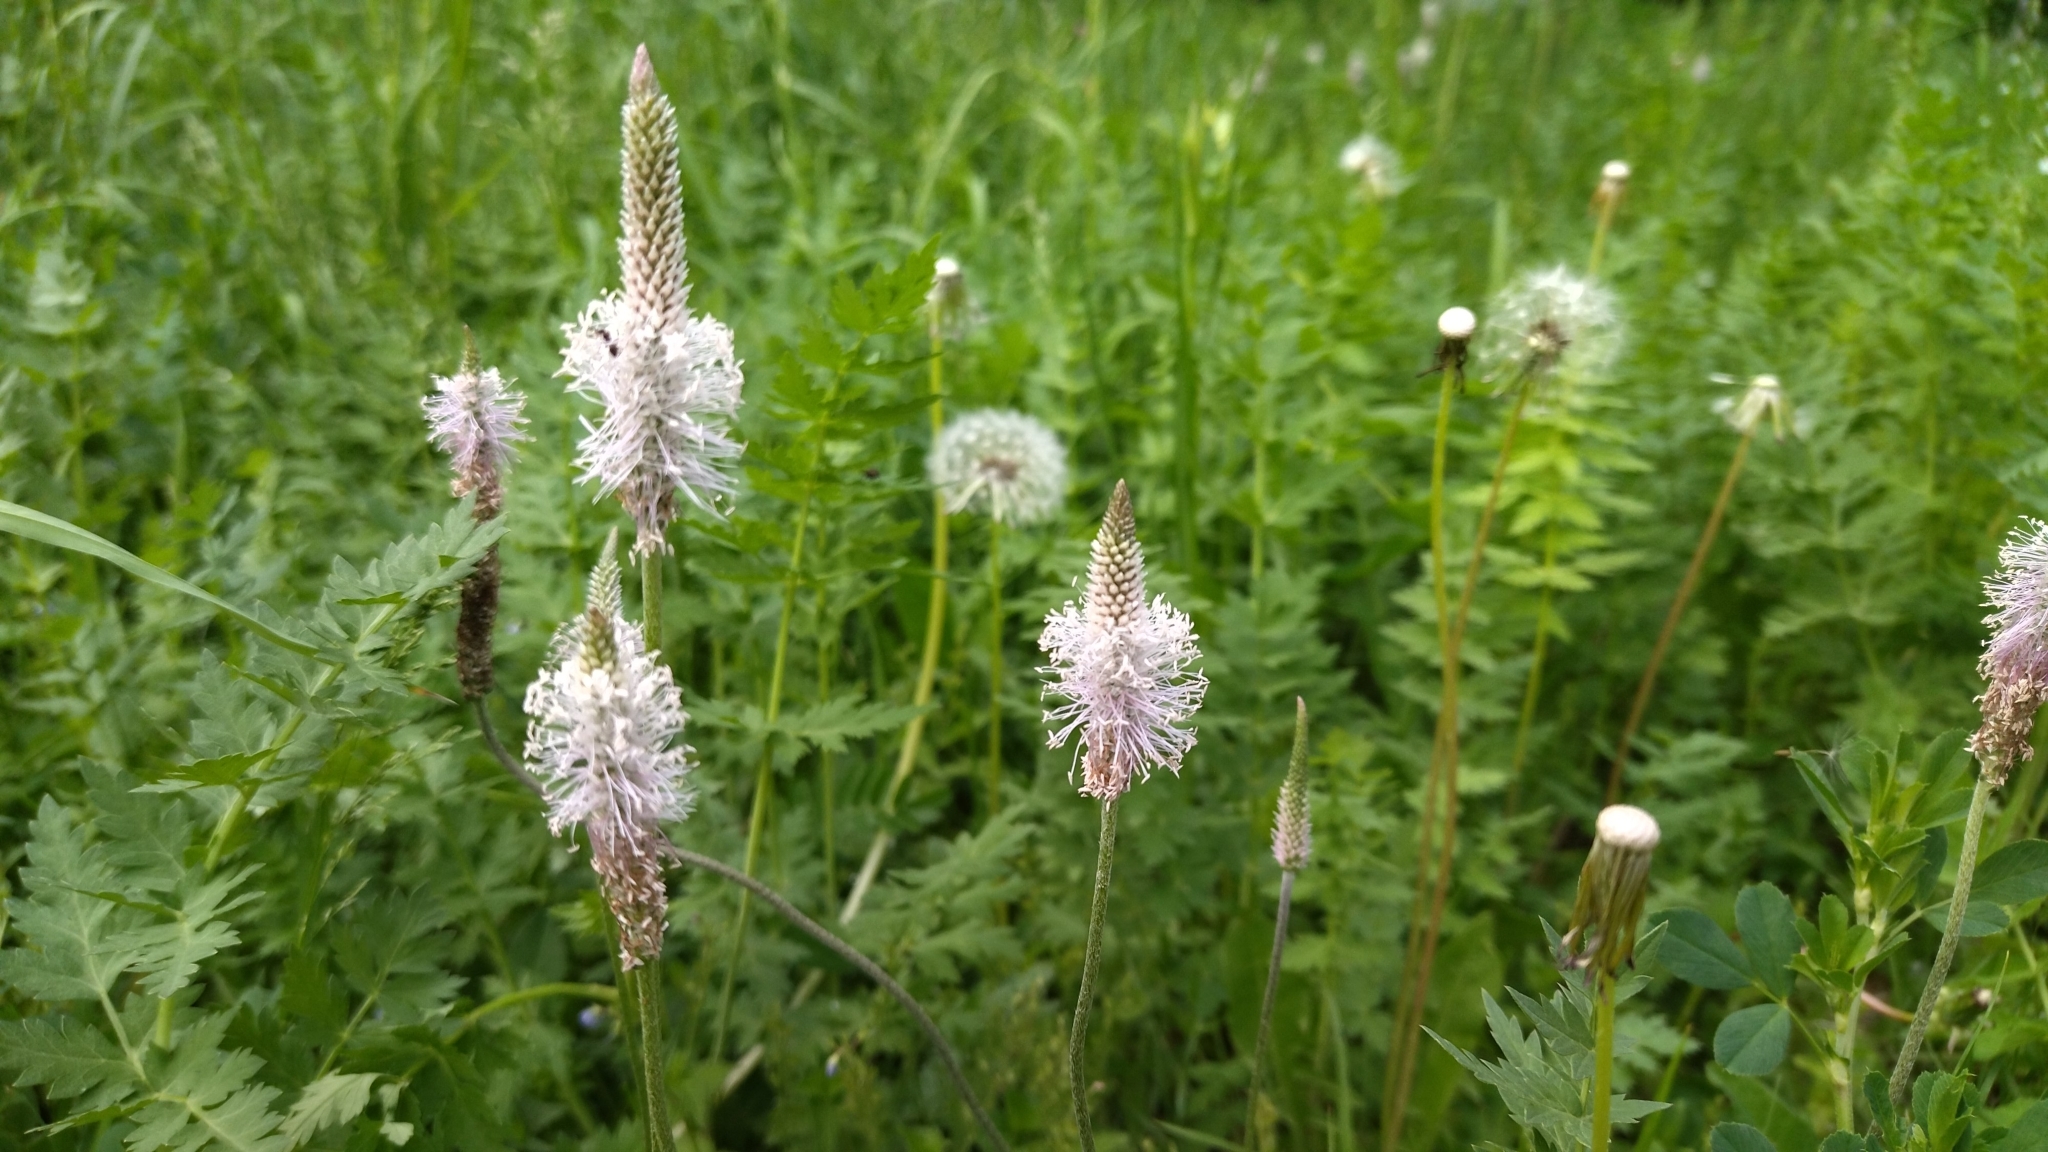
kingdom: Plantae
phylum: Tracheophyta
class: Magnoliopsida
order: Lamiales
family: Plantaginaceae
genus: Plantago
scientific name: Plantago media
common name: Hoary plantain
